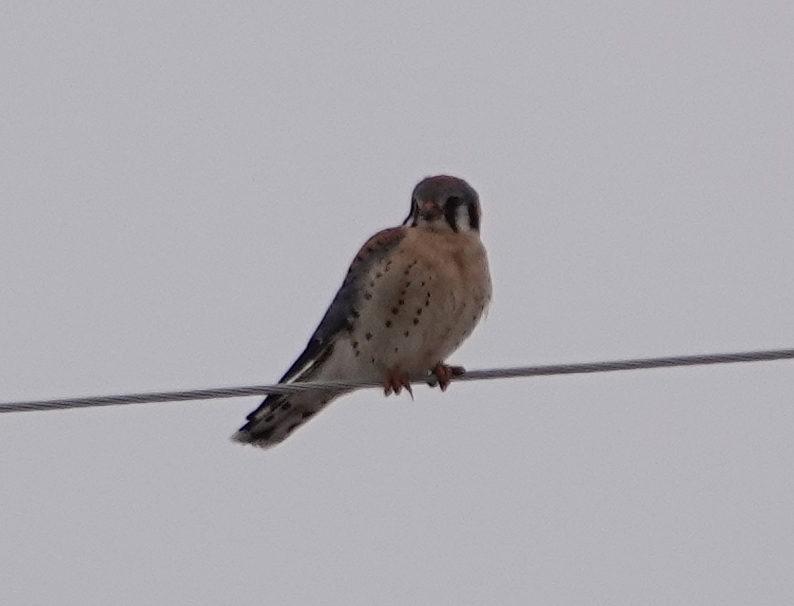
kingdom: Animalia
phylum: Chordata
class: Aves
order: Falconiformes
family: Falconidae
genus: Falco
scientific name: Falco sparverius
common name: American kestrel
